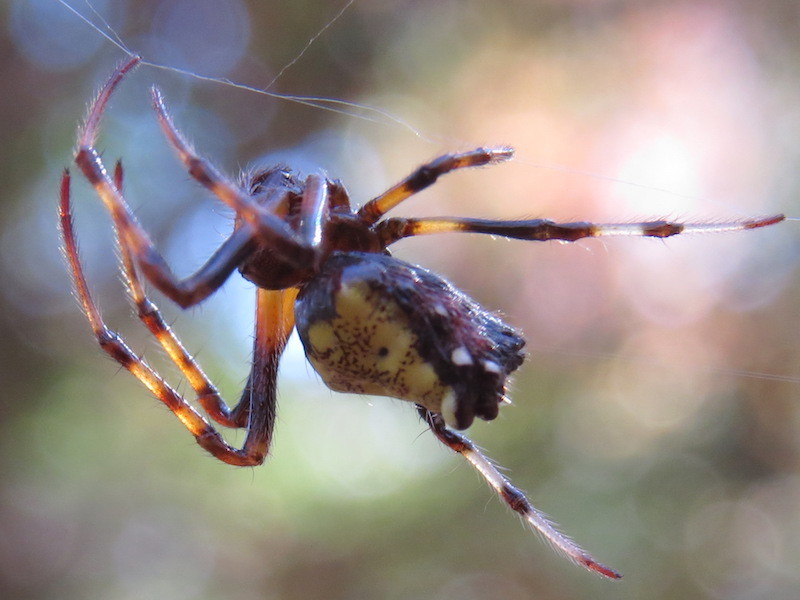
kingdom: Animalia
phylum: Arthropoda
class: Arachnida
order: Araneae
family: Araneidae
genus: Verrucosa
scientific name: Verrucosa arenata
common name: Orb weavers
